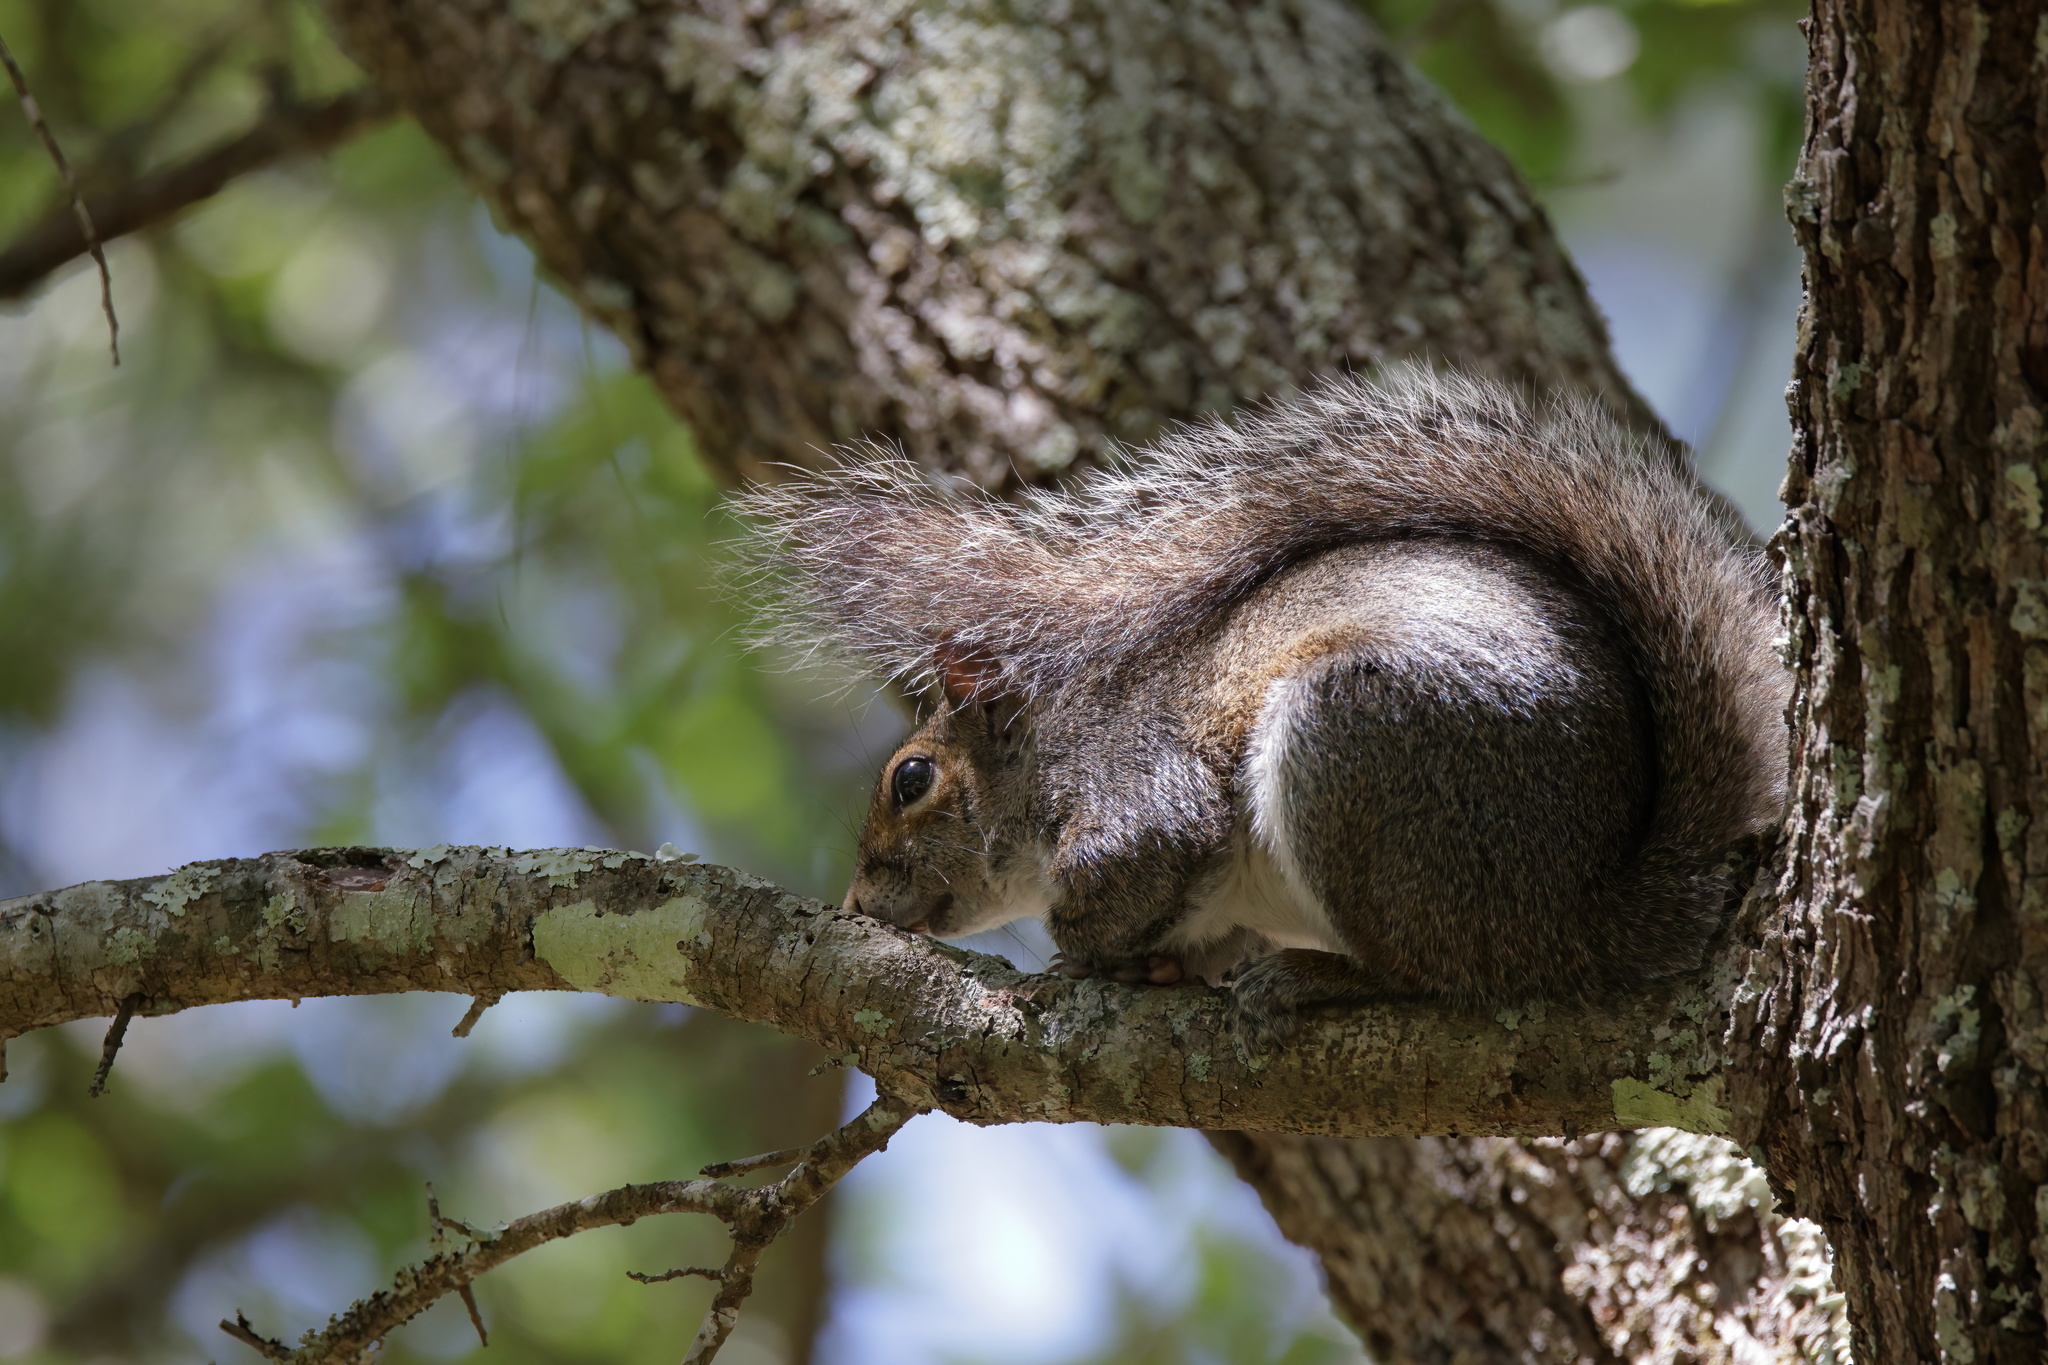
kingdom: Animalia
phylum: Chordata
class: Mammalia
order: Rodentia
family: Sciuridae
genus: Sciurus
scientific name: Sciurus carolinensis
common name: Eastern gray squirrel
